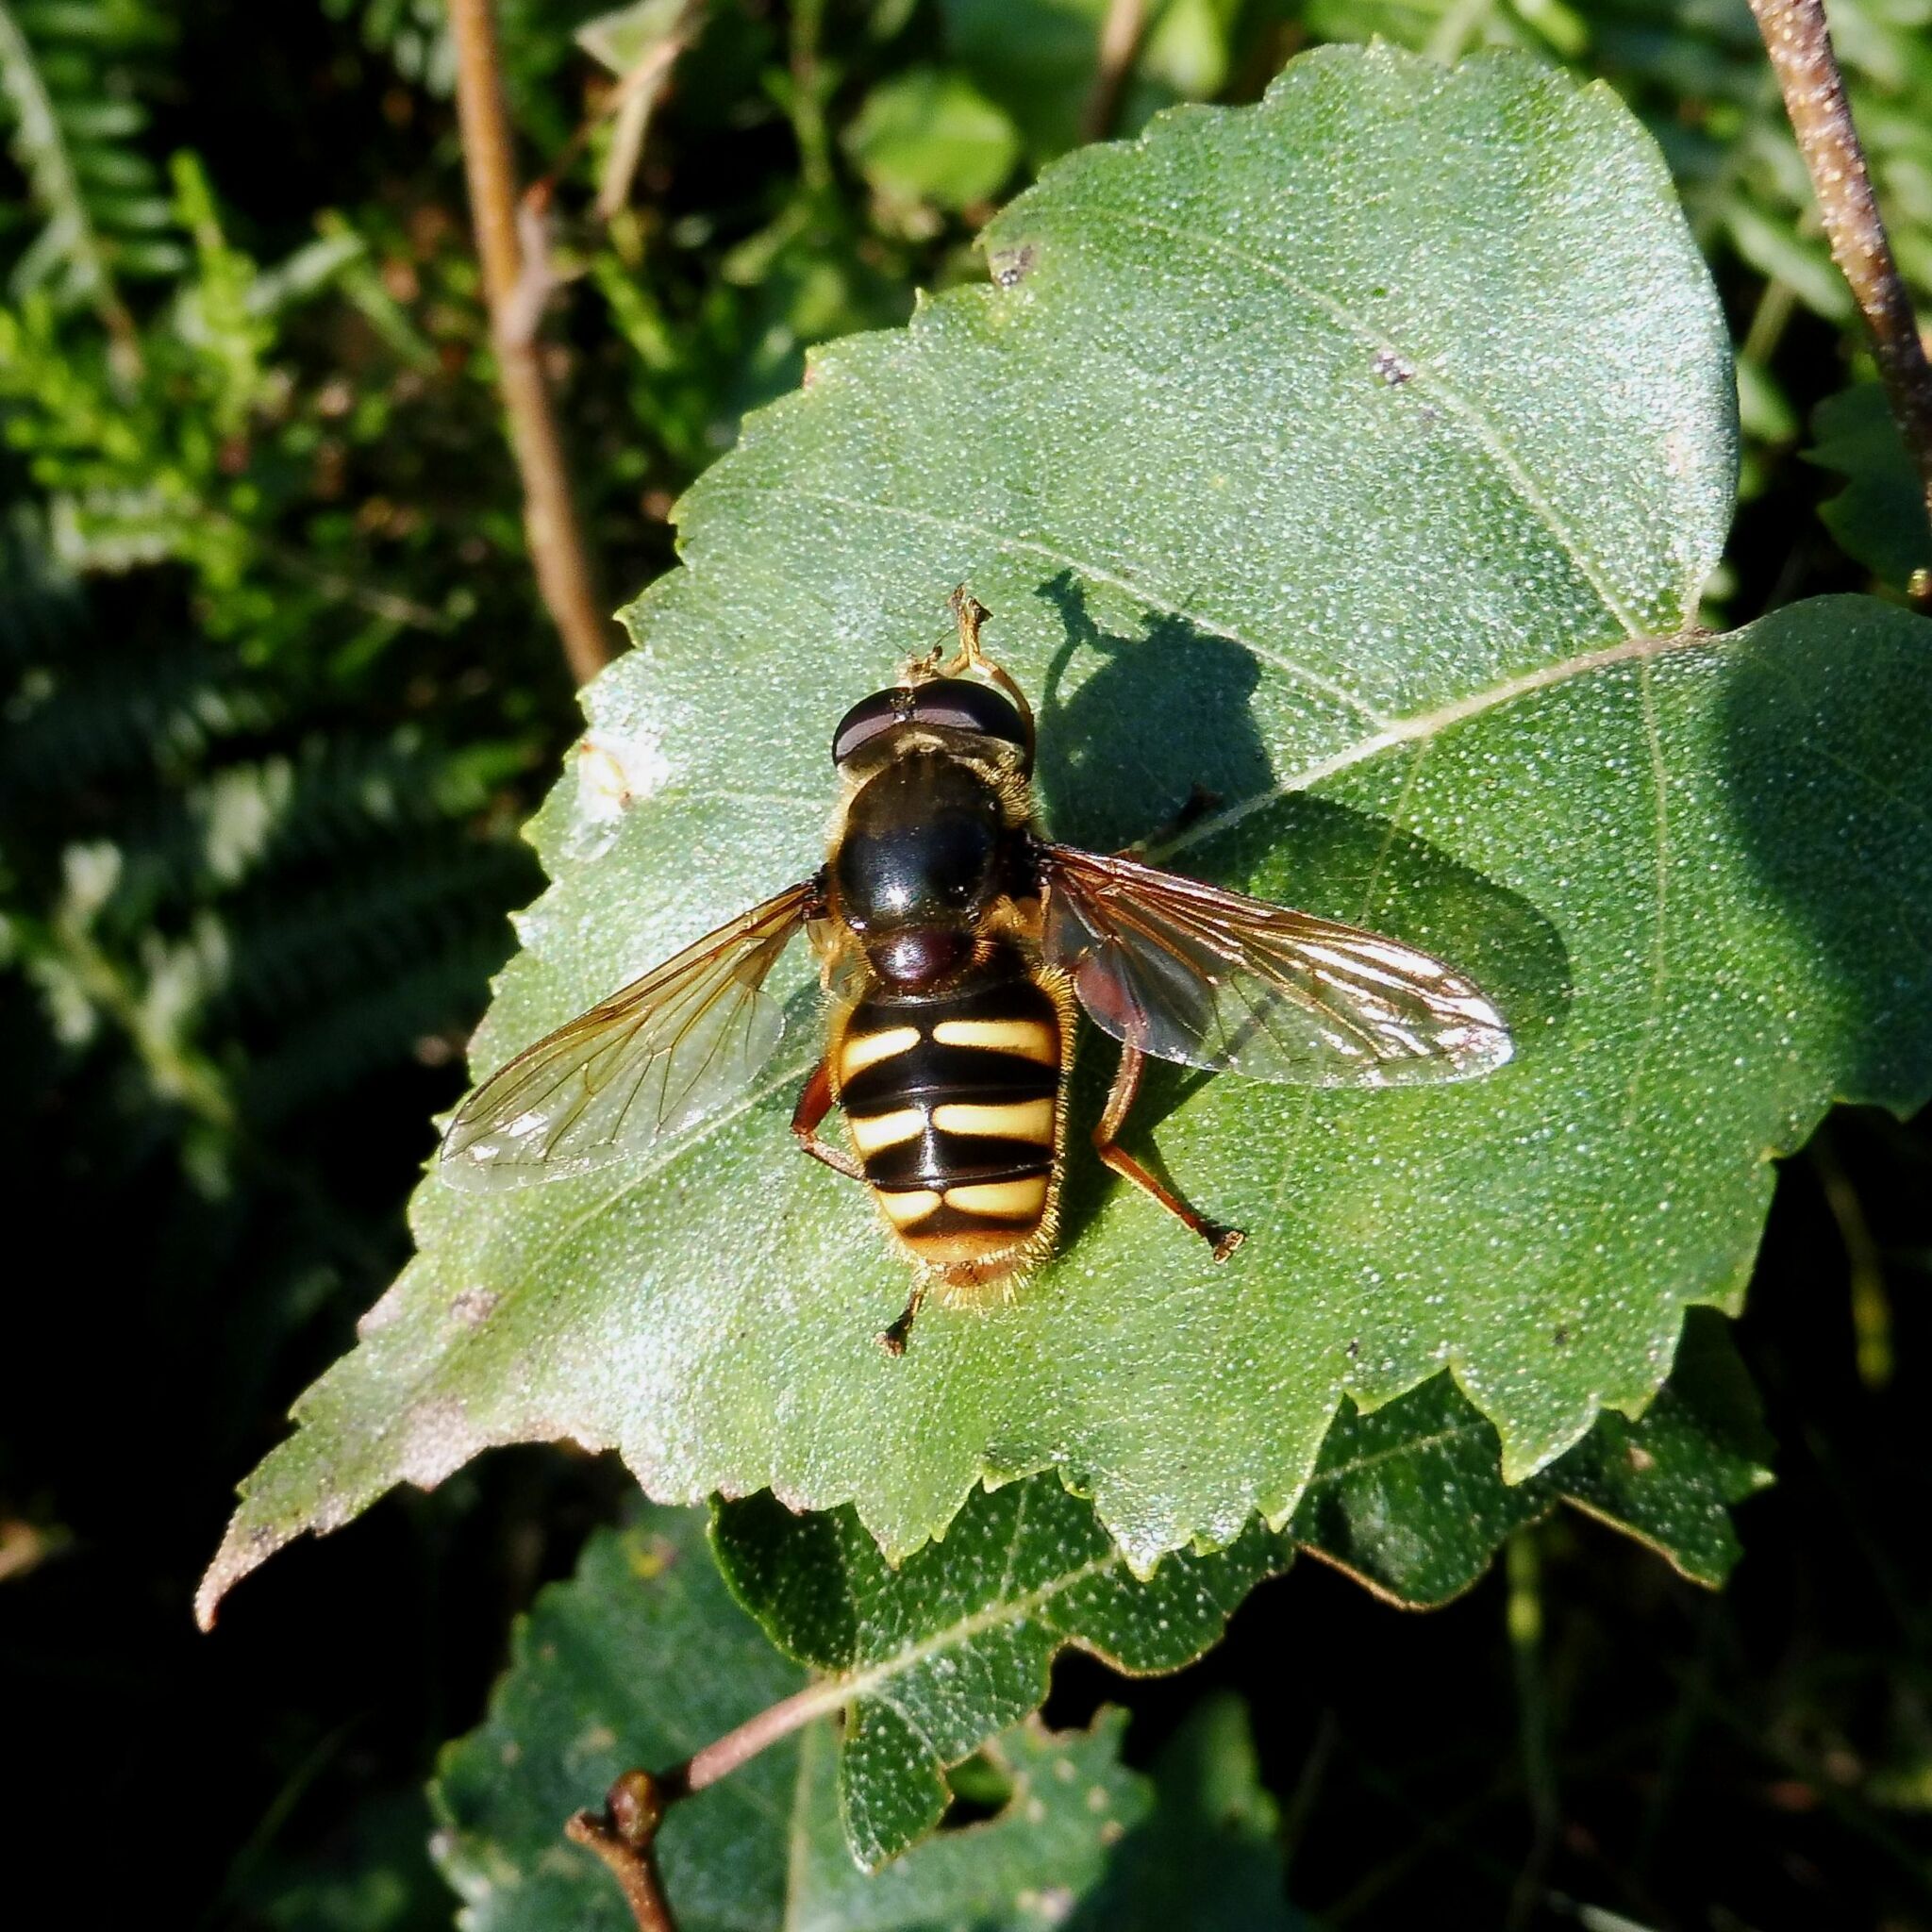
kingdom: Animalia
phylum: Arthropoda
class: Insecta
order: Diptera
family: Syrphidae
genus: Sericomyia
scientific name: Sericomyia silentis
